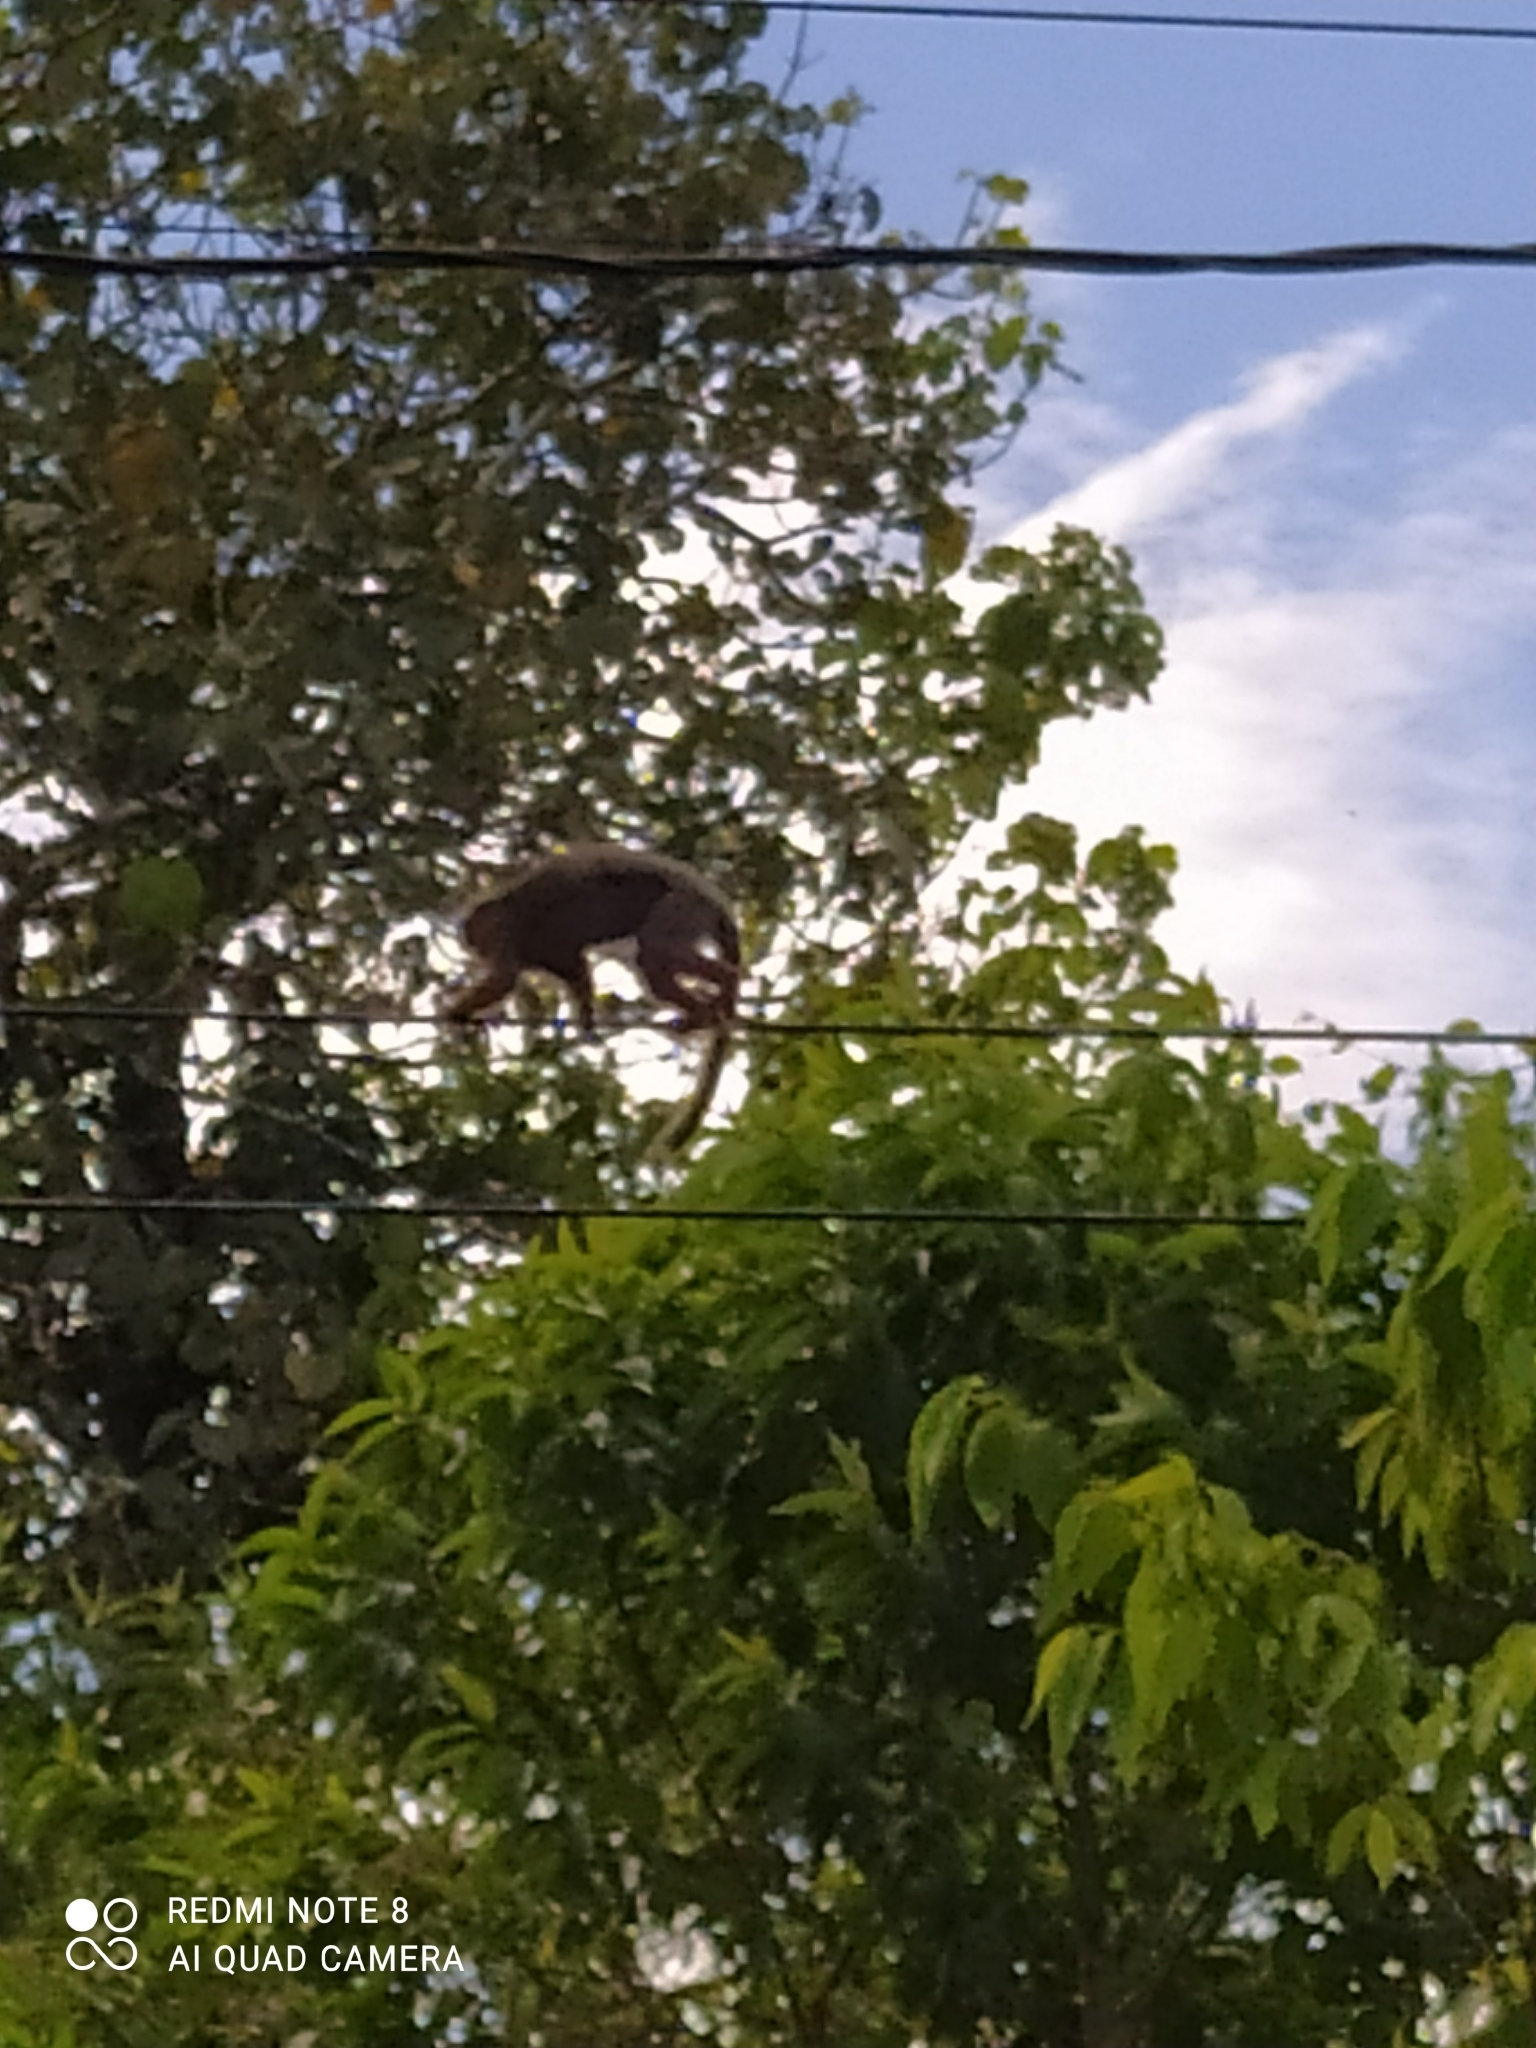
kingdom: Animalia
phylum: Chordata
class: Mammalia
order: Primates
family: Pitheciidae
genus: Plecturocebus
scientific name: Plecturocebus discolor
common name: Red-crowned titi
